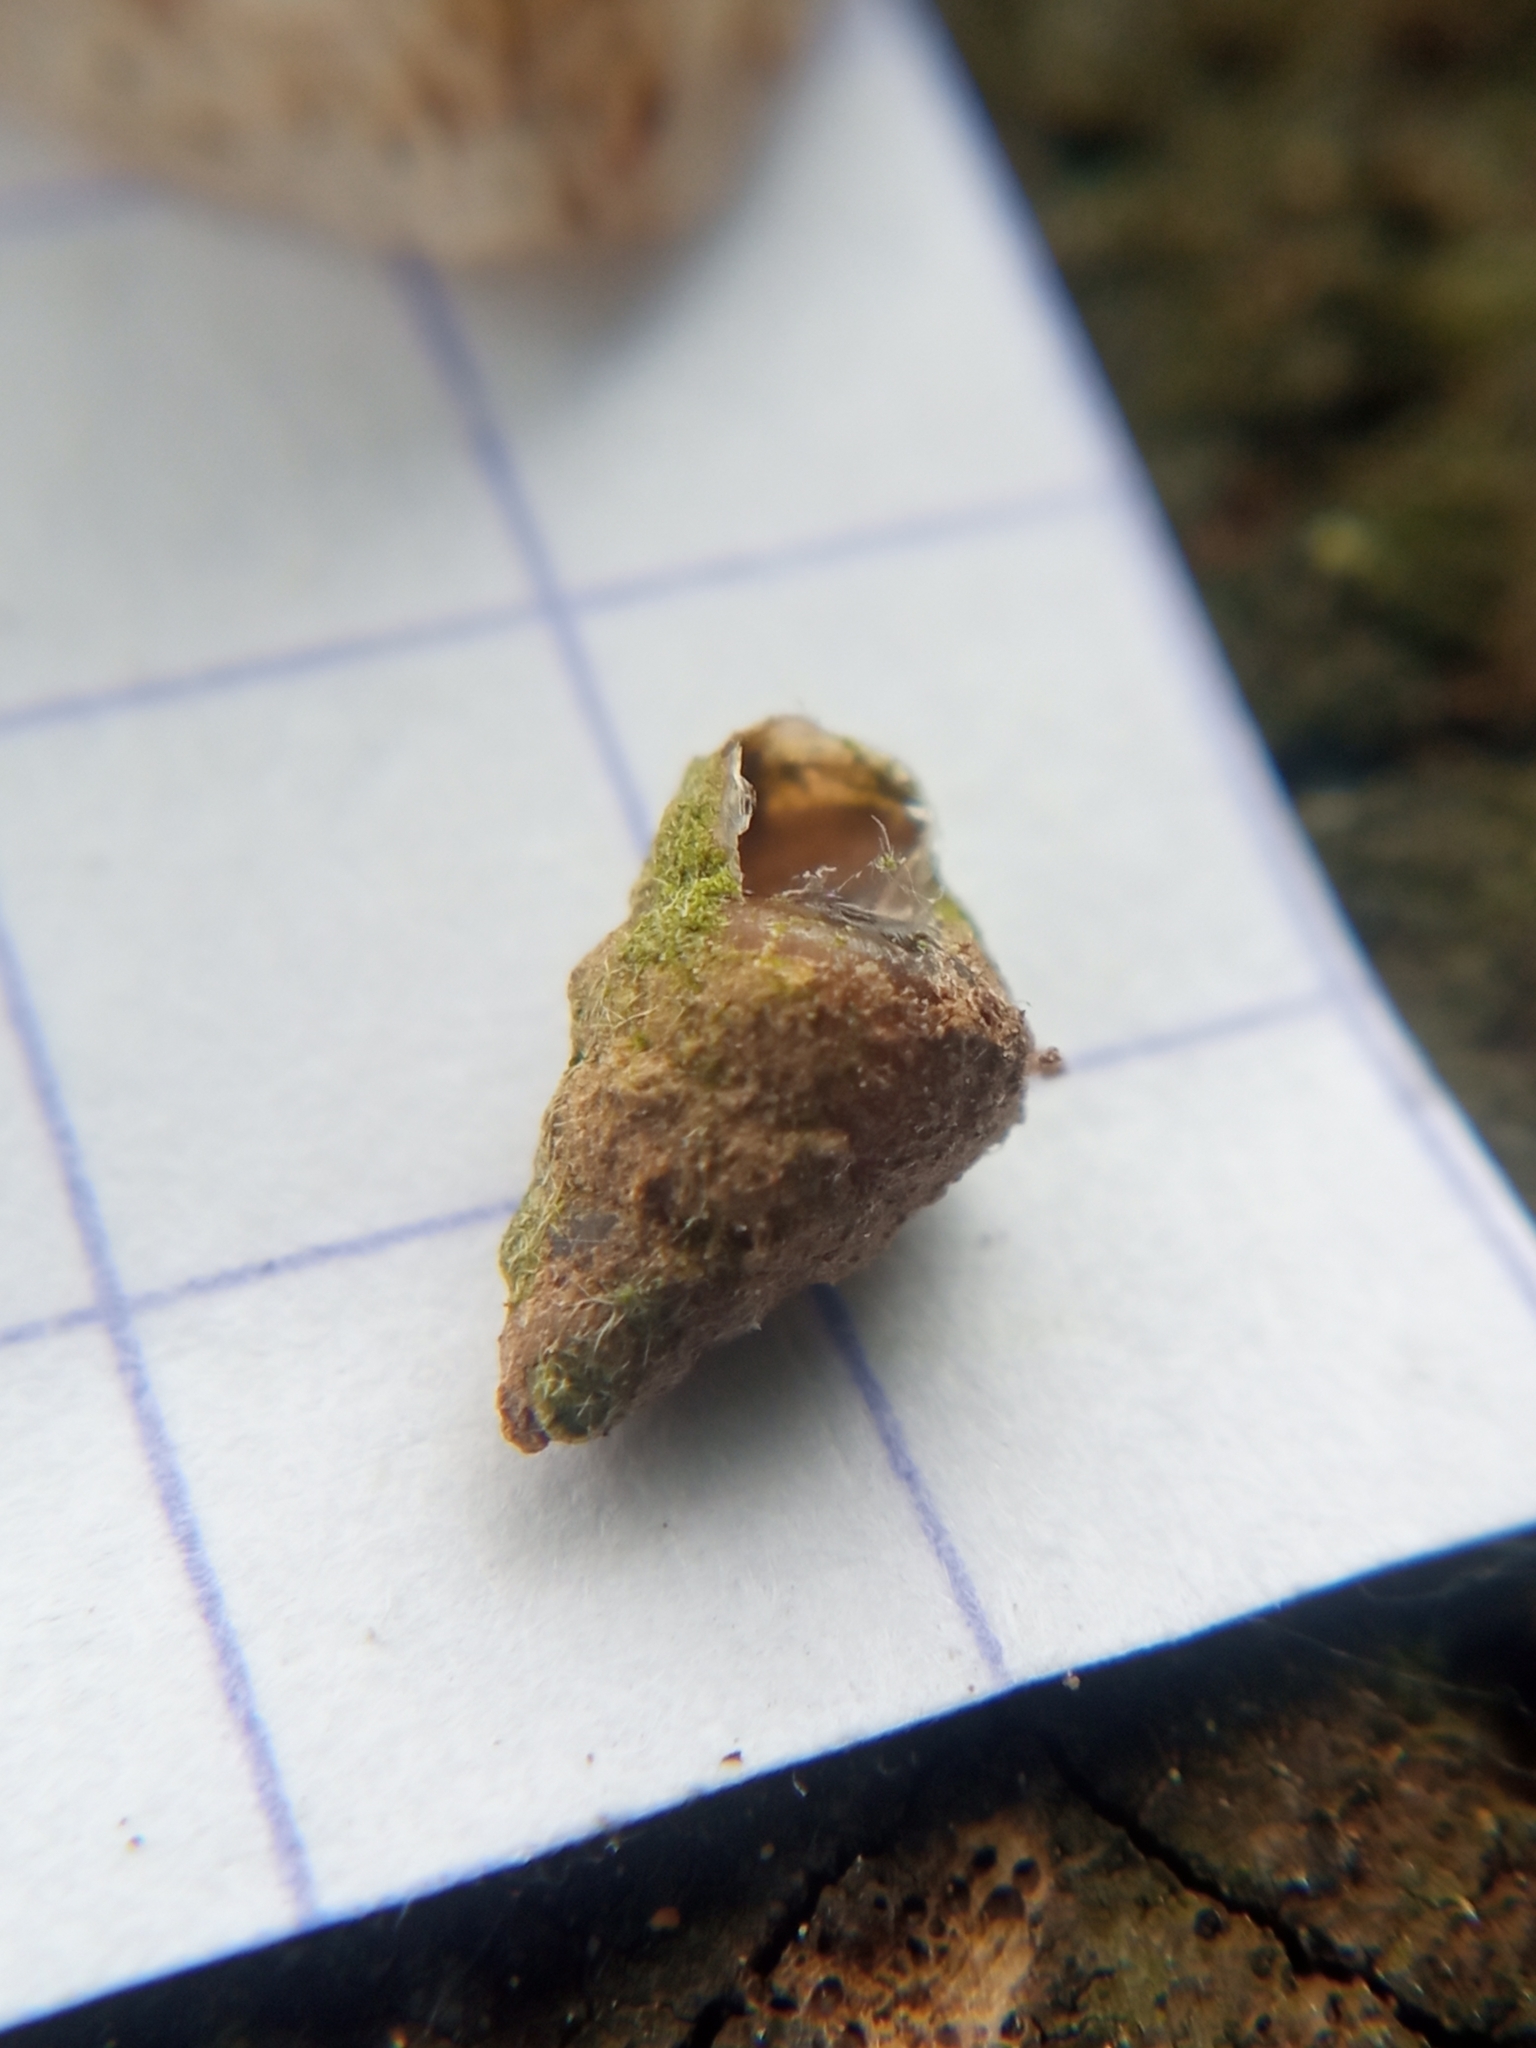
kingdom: Animalia
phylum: Mollusca
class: Gastropoda
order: Stylommatophora
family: Enidae
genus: Merdigera
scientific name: Merdigera obscura
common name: Lesser bulin
